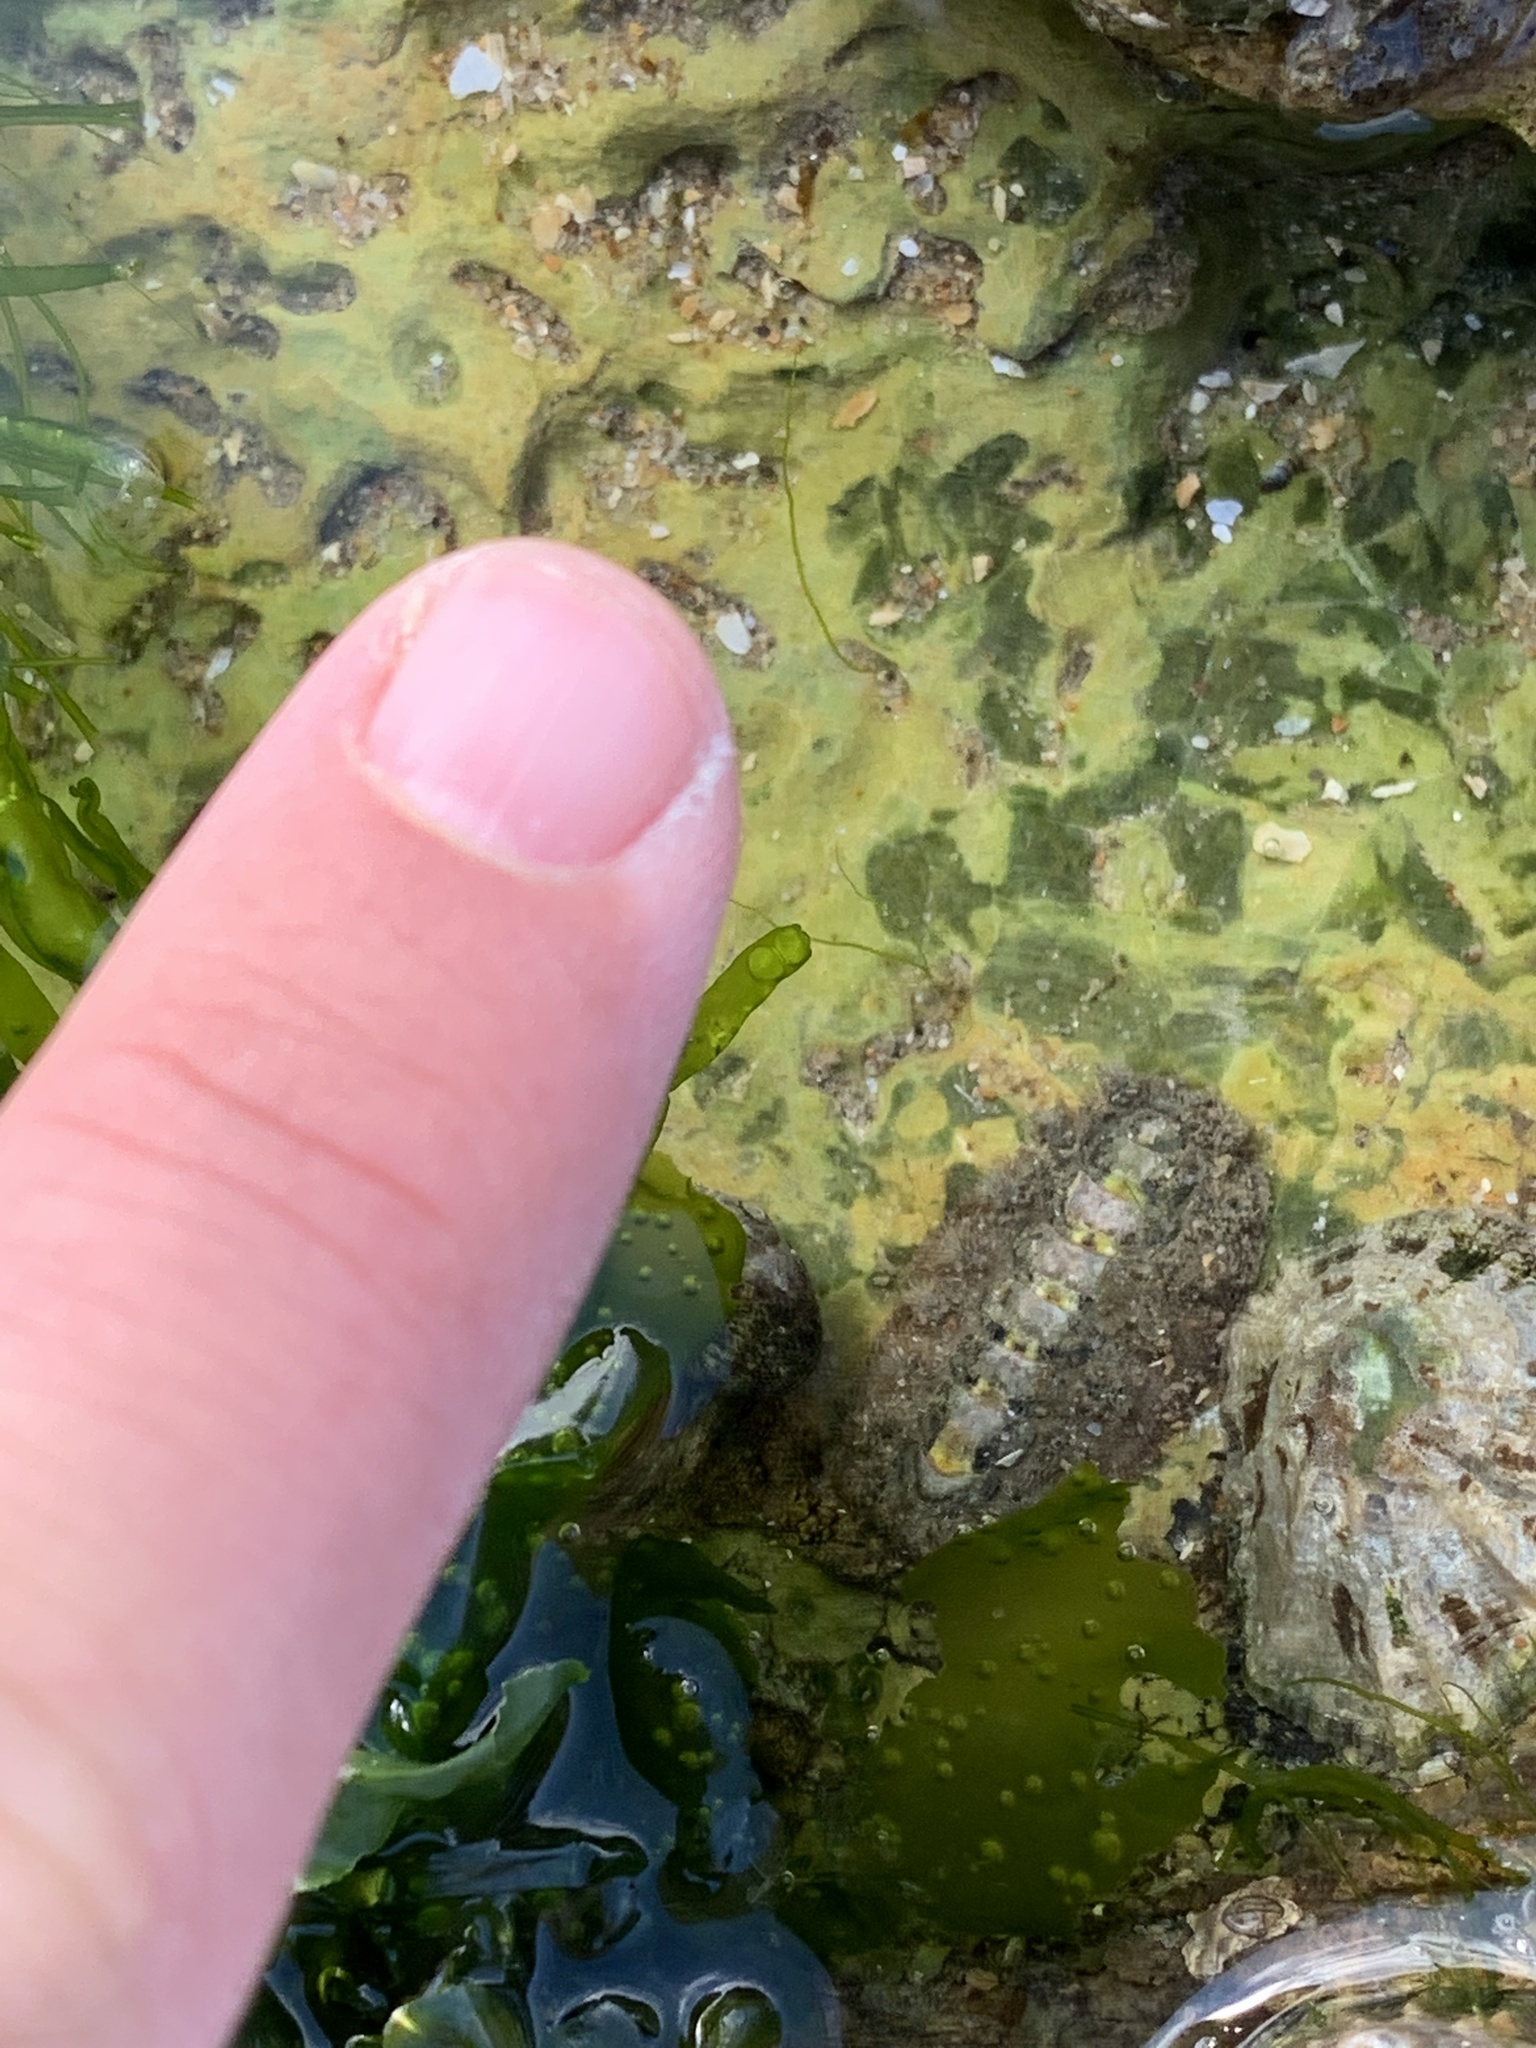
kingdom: Animalia
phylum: Mollusca
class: Polyplacophora
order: Chitonida
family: Acanthochitonidae
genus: Acanthochitona
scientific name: Acanthochitona crinita
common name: Bristly mail chiton
